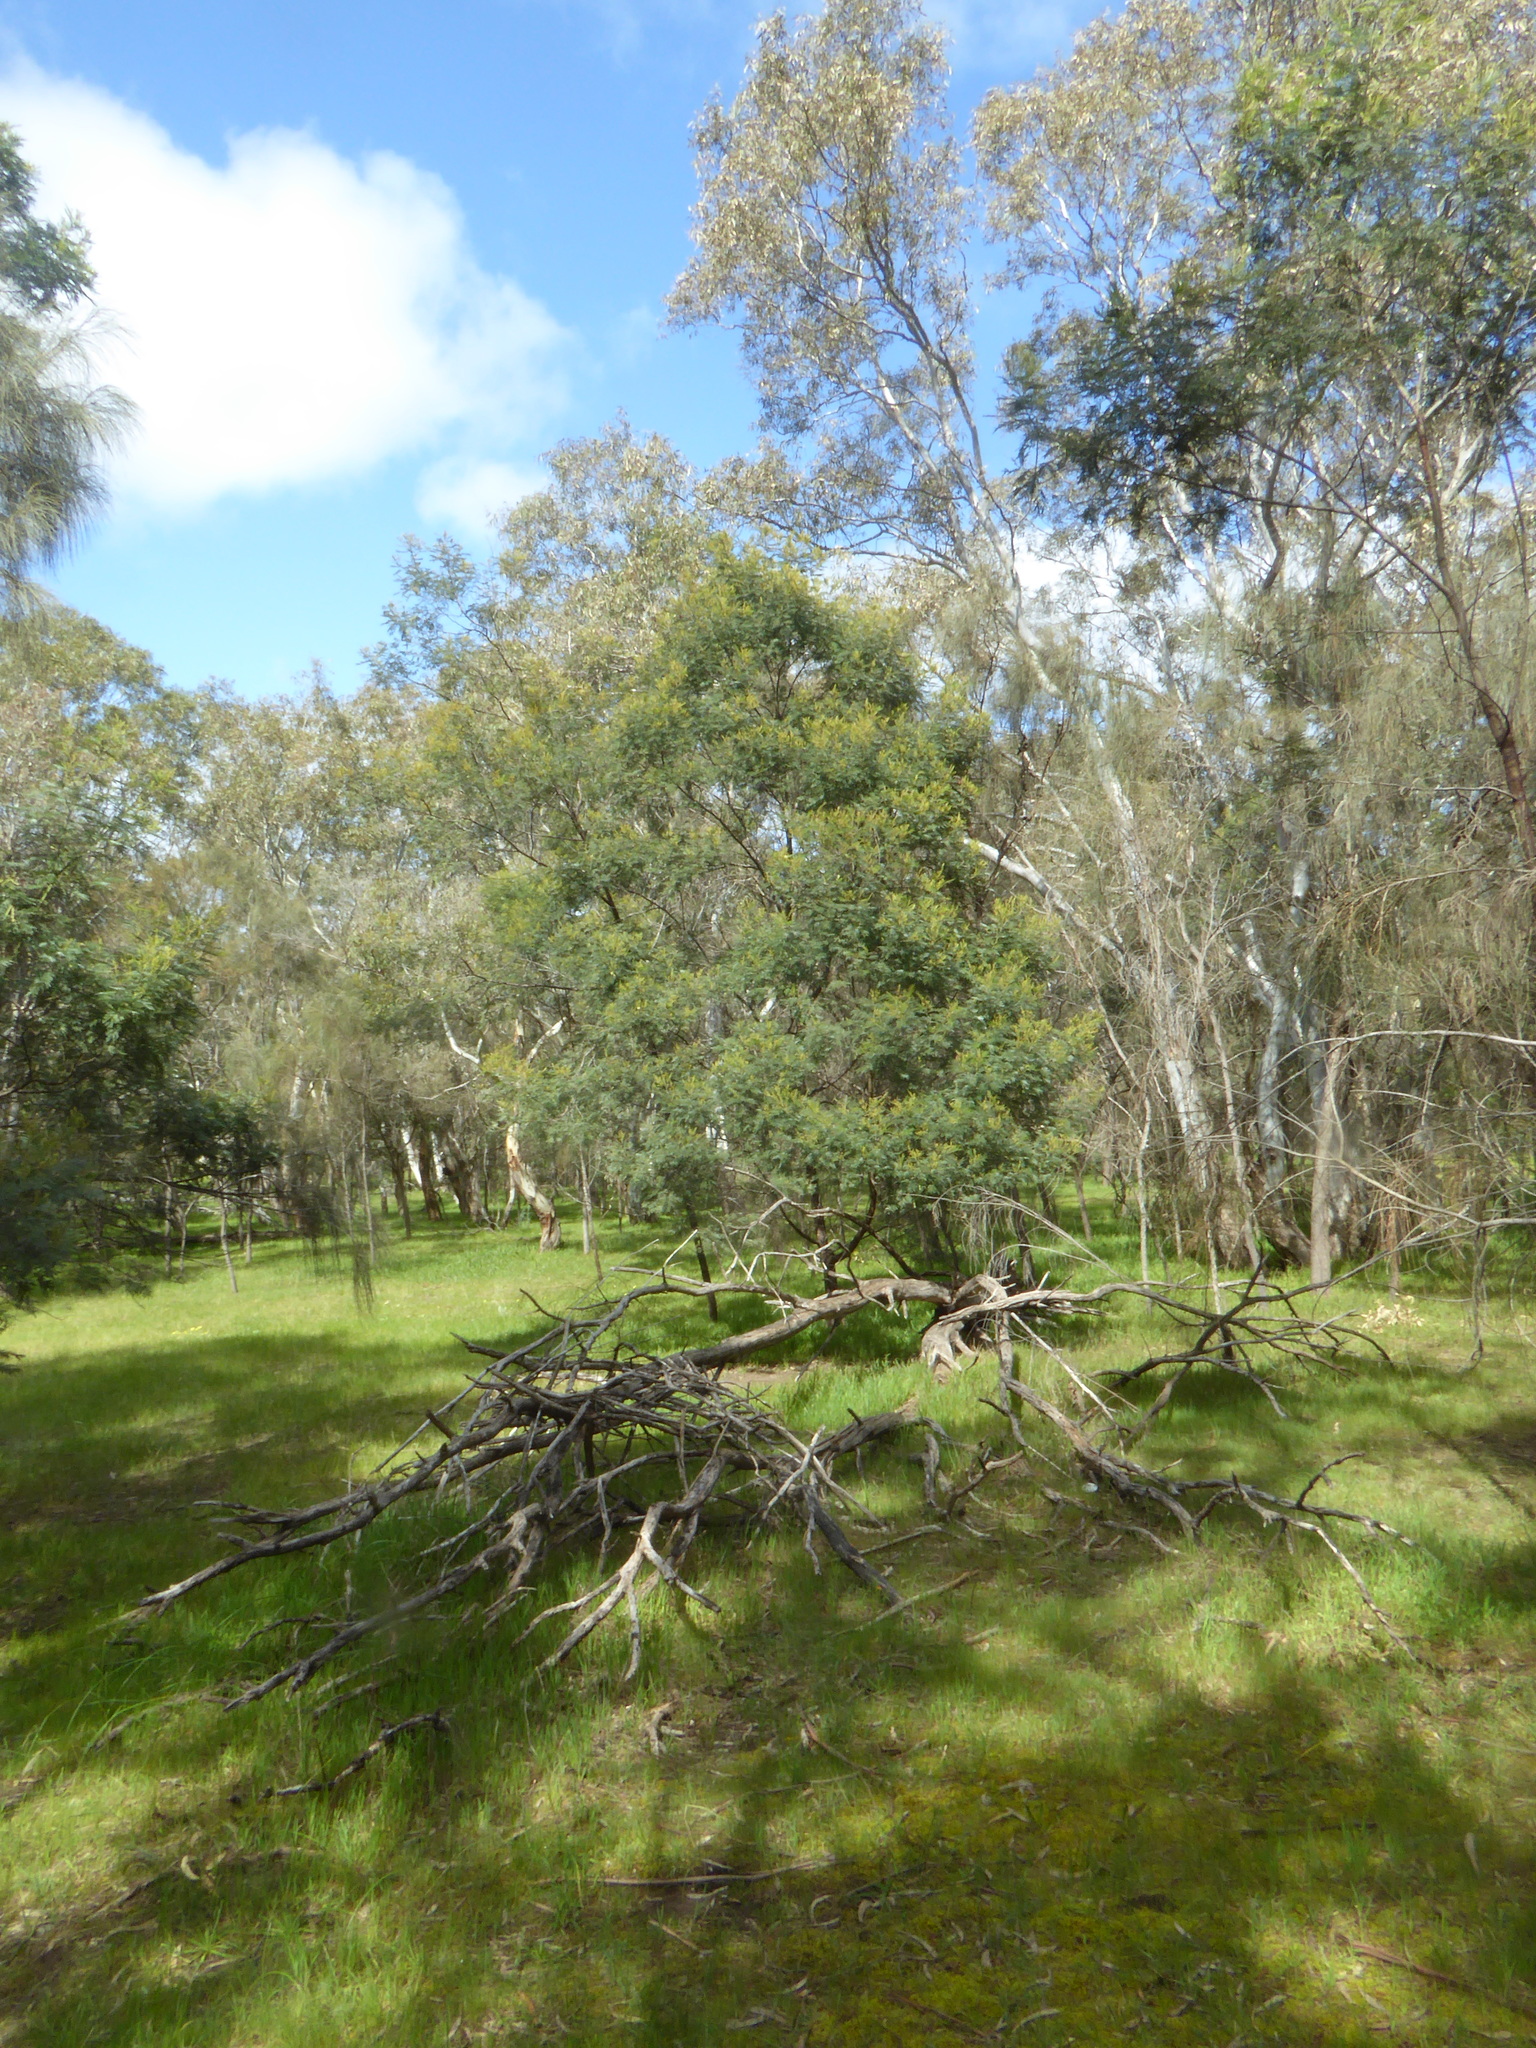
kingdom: Plantae
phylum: Tracheophyta
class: Magnoliopsida
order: Fabales
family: Fabaceae
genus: Acacia
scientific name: Acacia mearnsii
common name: Black wattle
